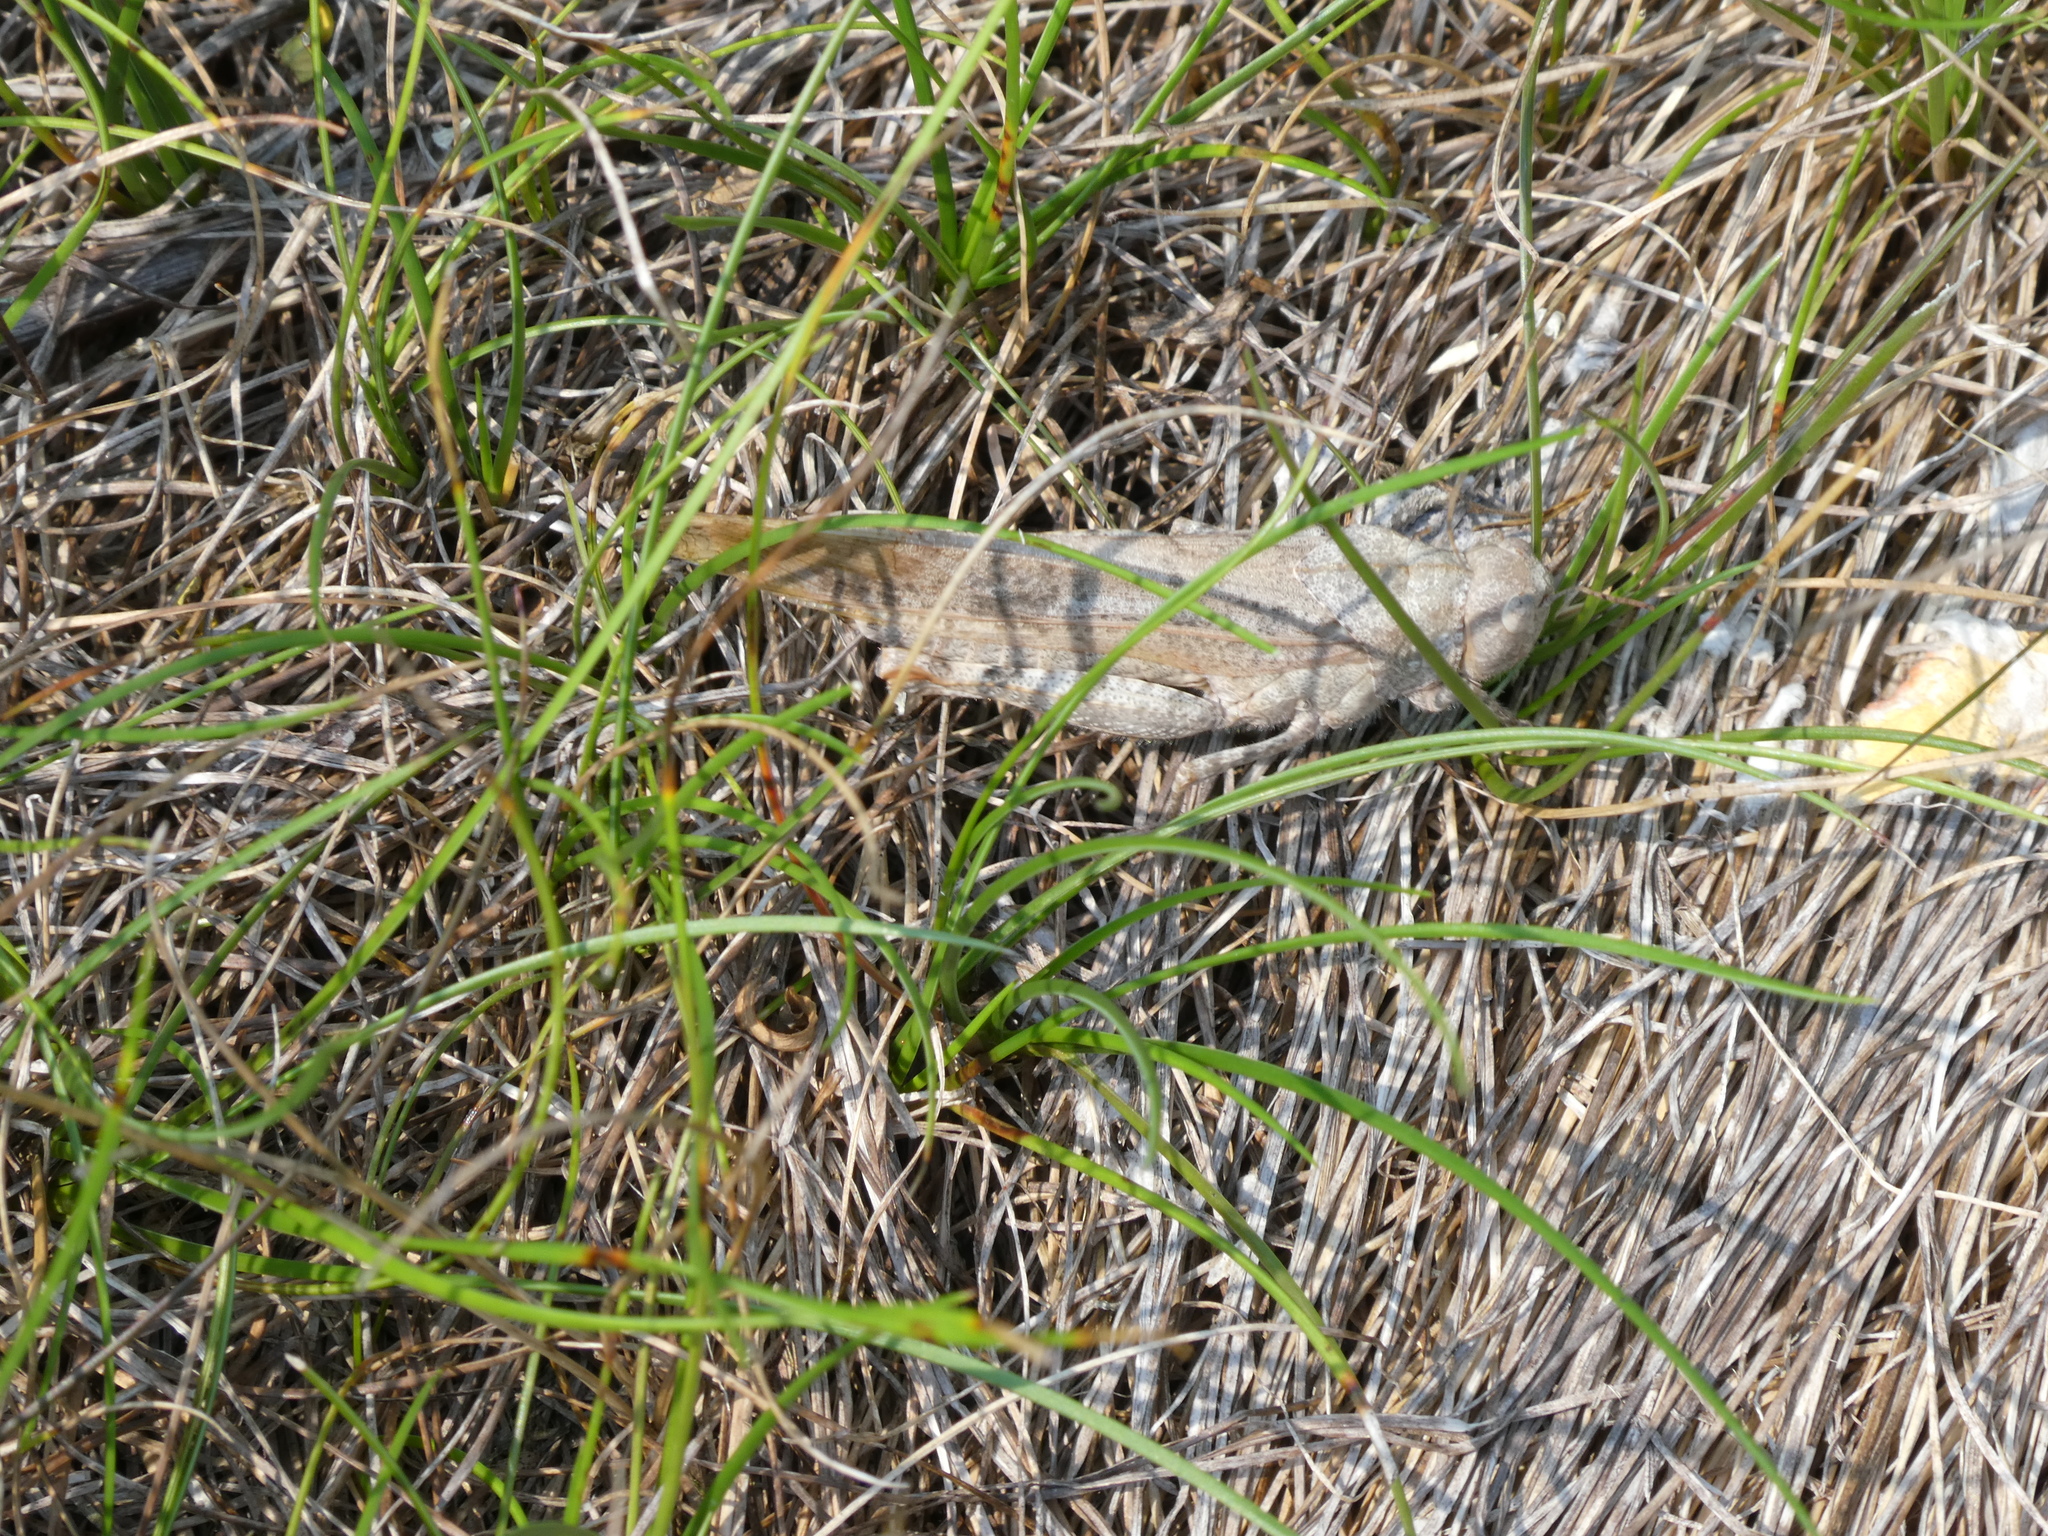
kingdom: Animalia
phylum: Arthropoda
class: Insecta
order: Orthoptera
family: Acrididae
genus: Dissosteira
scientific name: Dissosteira carolina
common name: Carolina grasshopper
